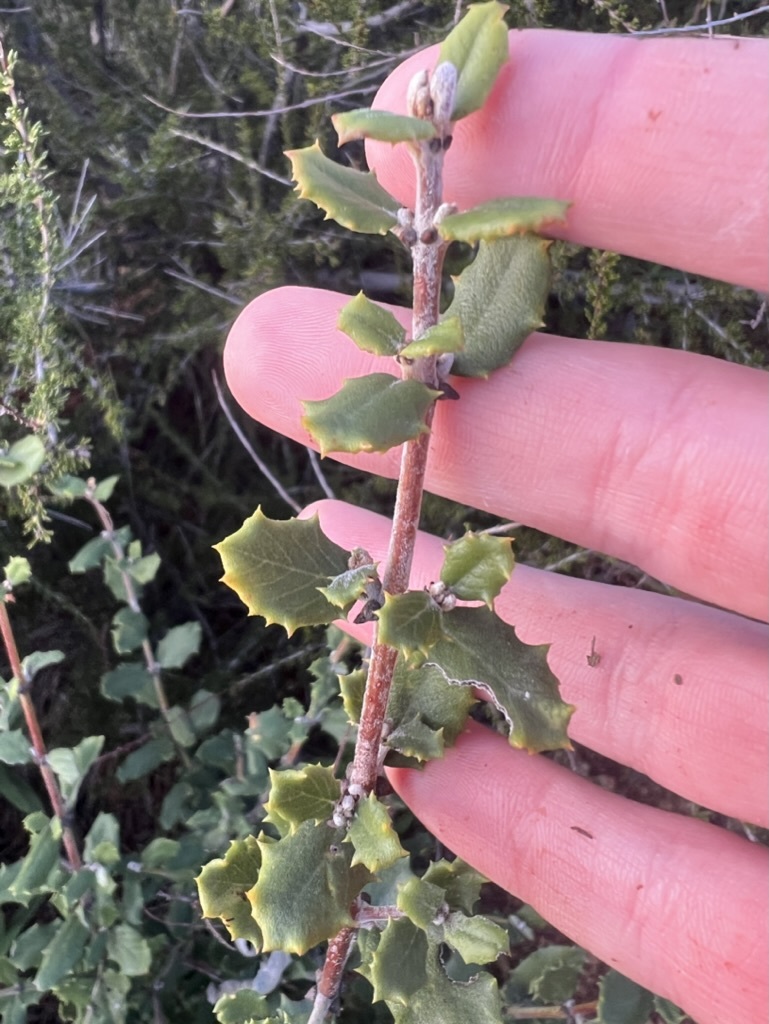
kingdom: Plantae
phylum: Tracheophyta
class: Magnoliopsida
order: Rosales
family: Rhamnaceae
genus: Ceanothus
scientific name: Ceanothus crassifolius
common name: Hoaryleaf ceanothus
